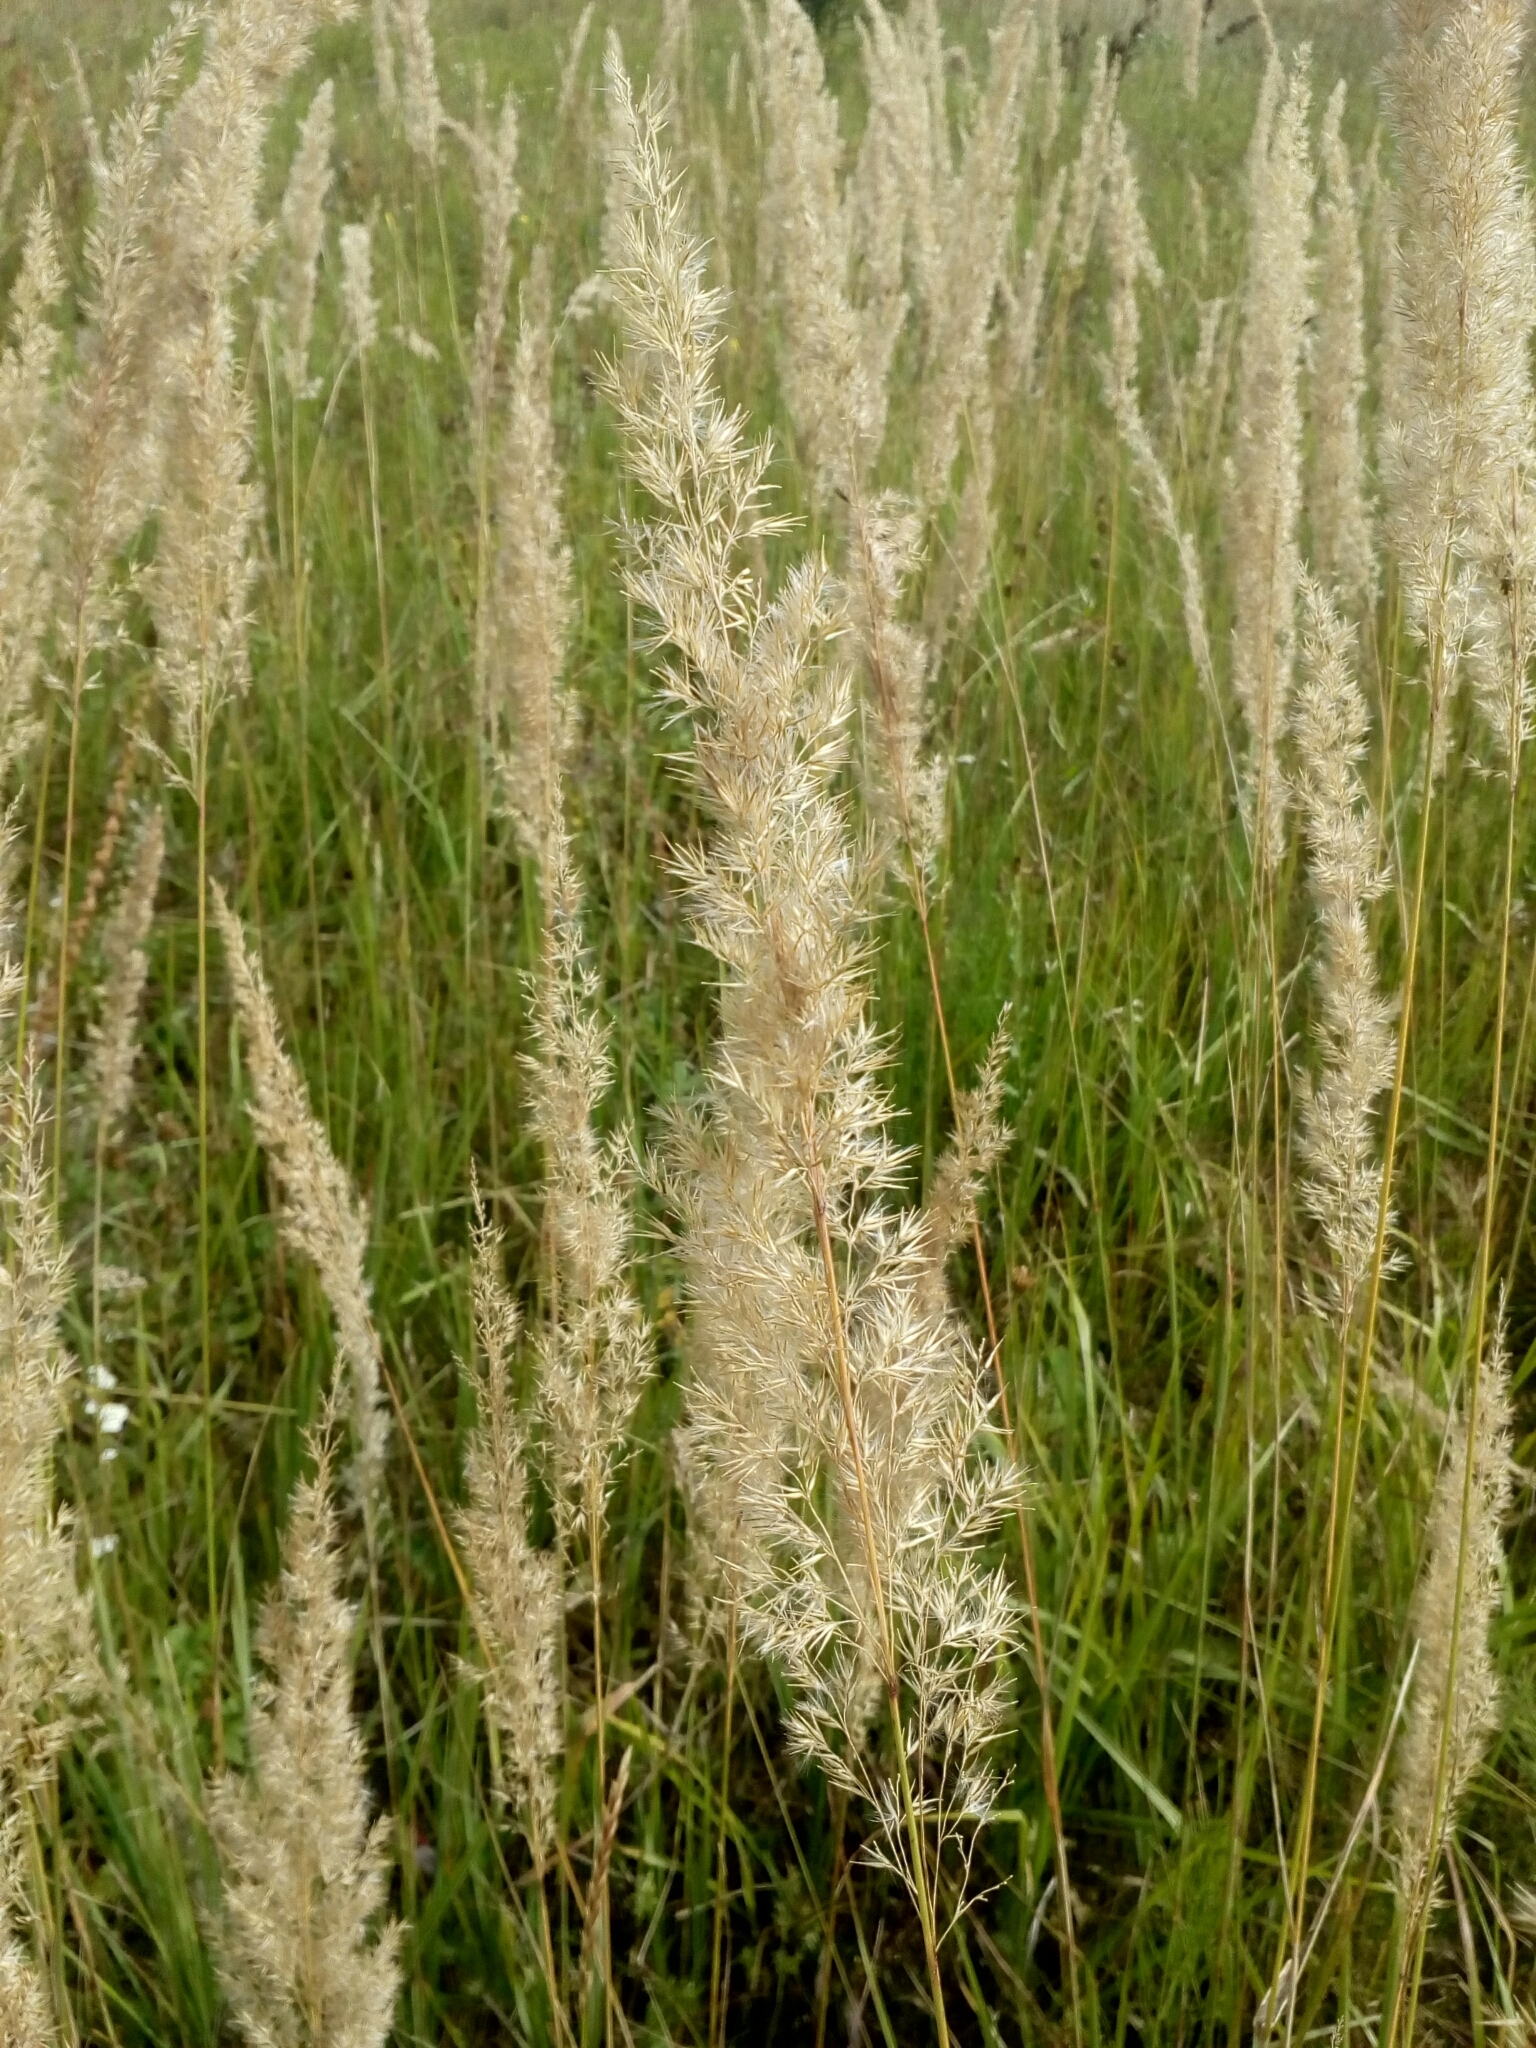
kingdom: Plantae
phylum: Tracheophyta
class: Liliopsida
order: Poales
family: Poaceae
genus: Calamagrostis
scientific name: Calamagrostis epigejos
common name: Wood small-reed
